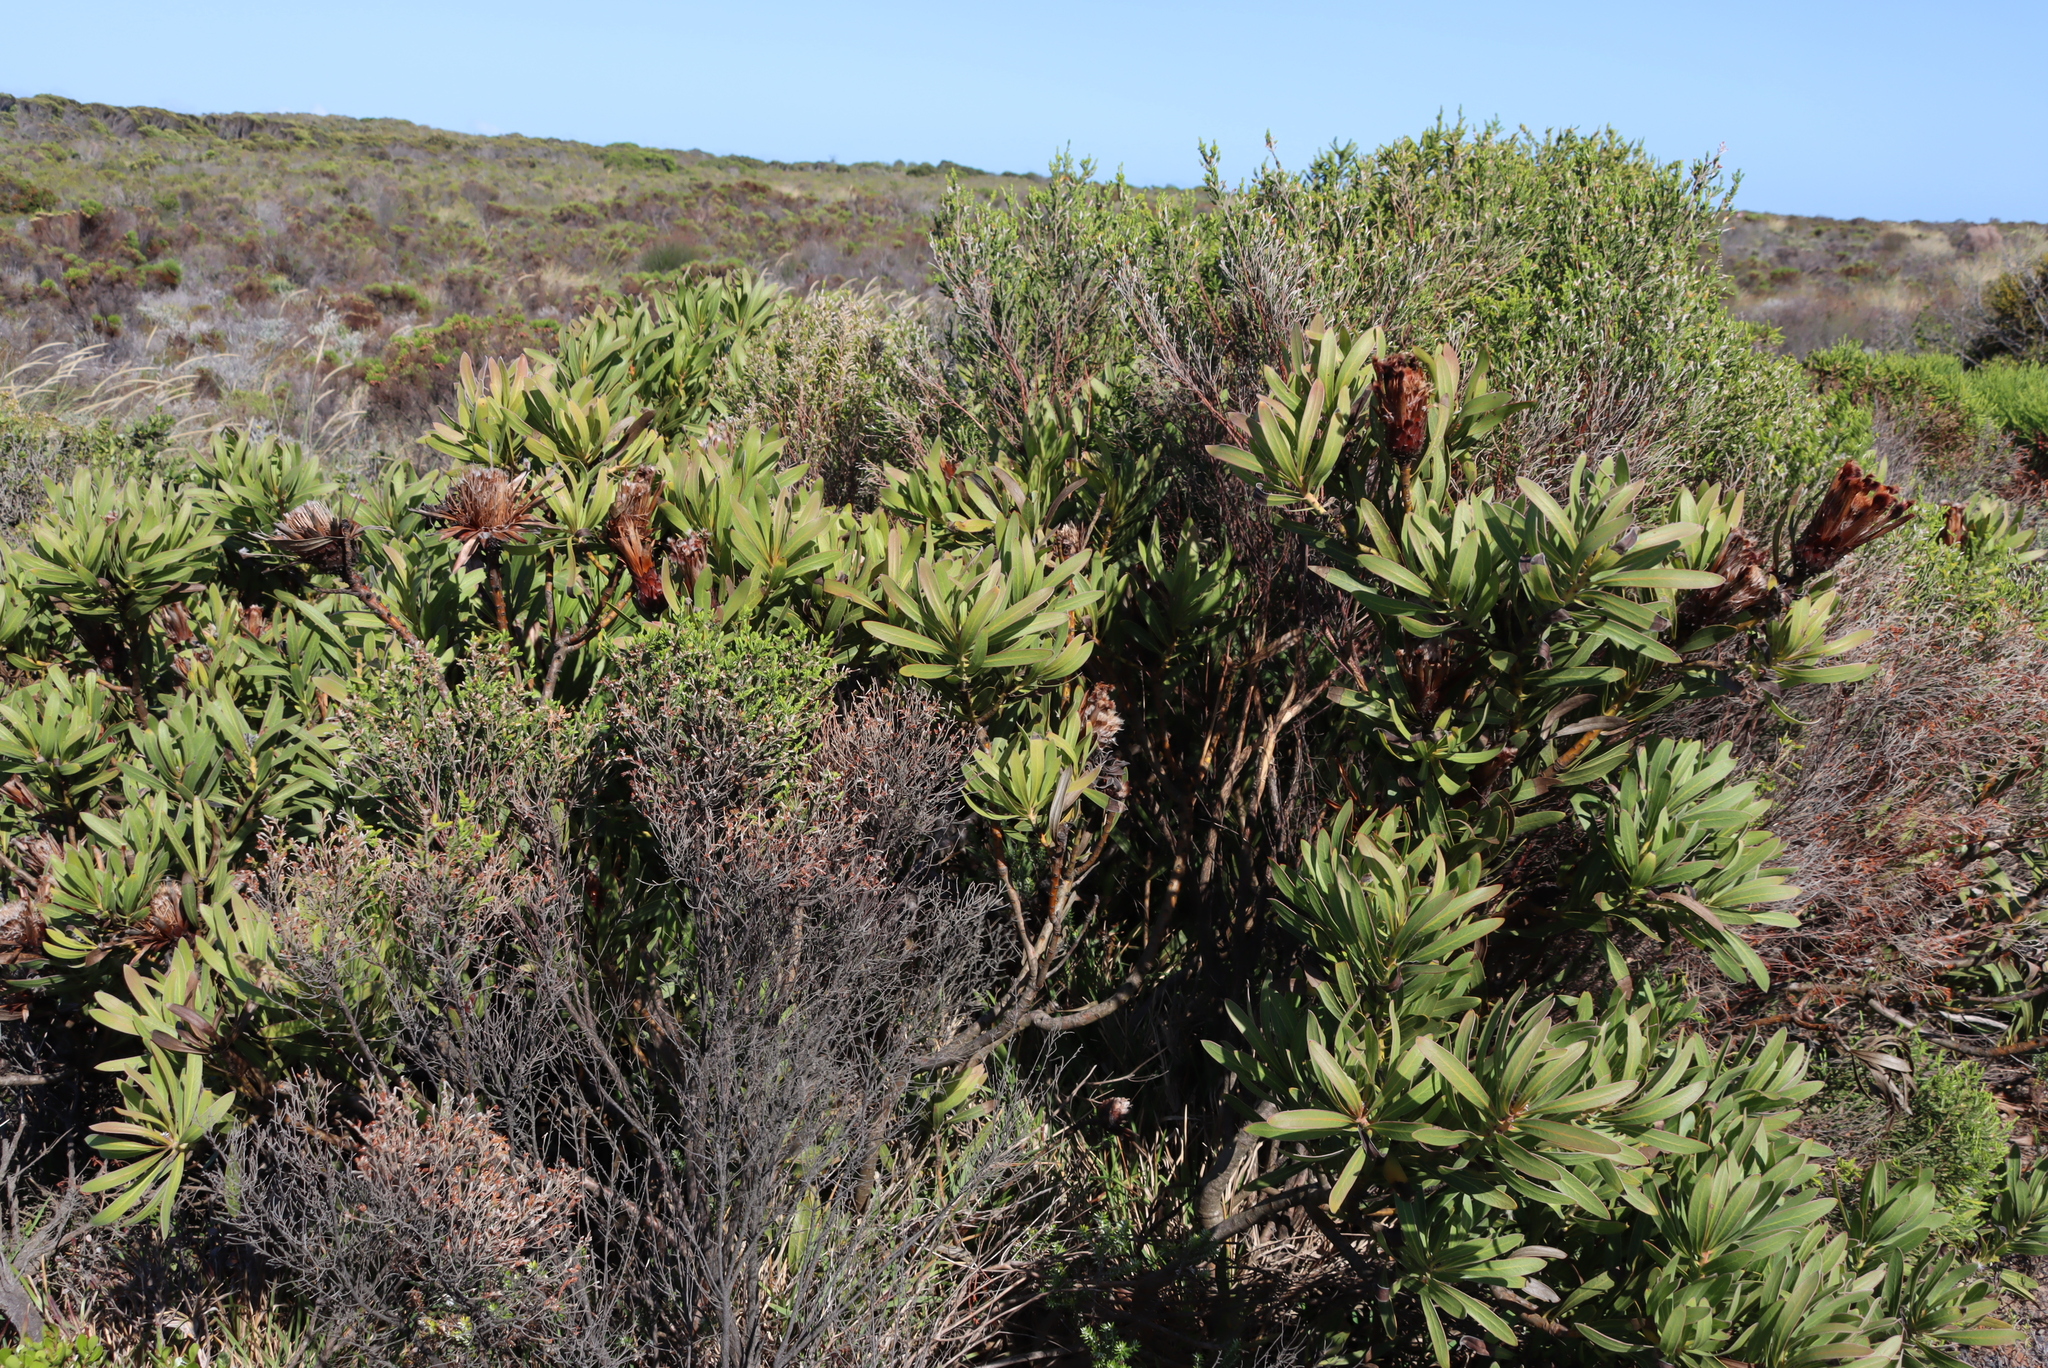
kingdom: Plantae
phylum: Tracheophyta
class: Magnoliopsida
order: Proteales
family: Proteaceae
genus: Protea
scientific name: Protea lepidocarpodendron
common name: Black-bearded protea
